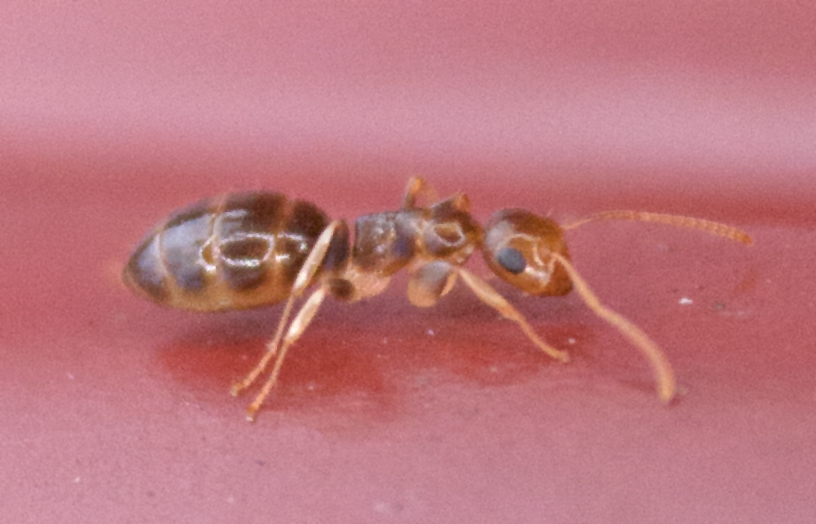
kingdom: Animalia
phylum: Arthropoda
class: Insecta
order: Hymenoptera
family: Formicidae
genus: Colobopsis
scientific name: Colobopsis
